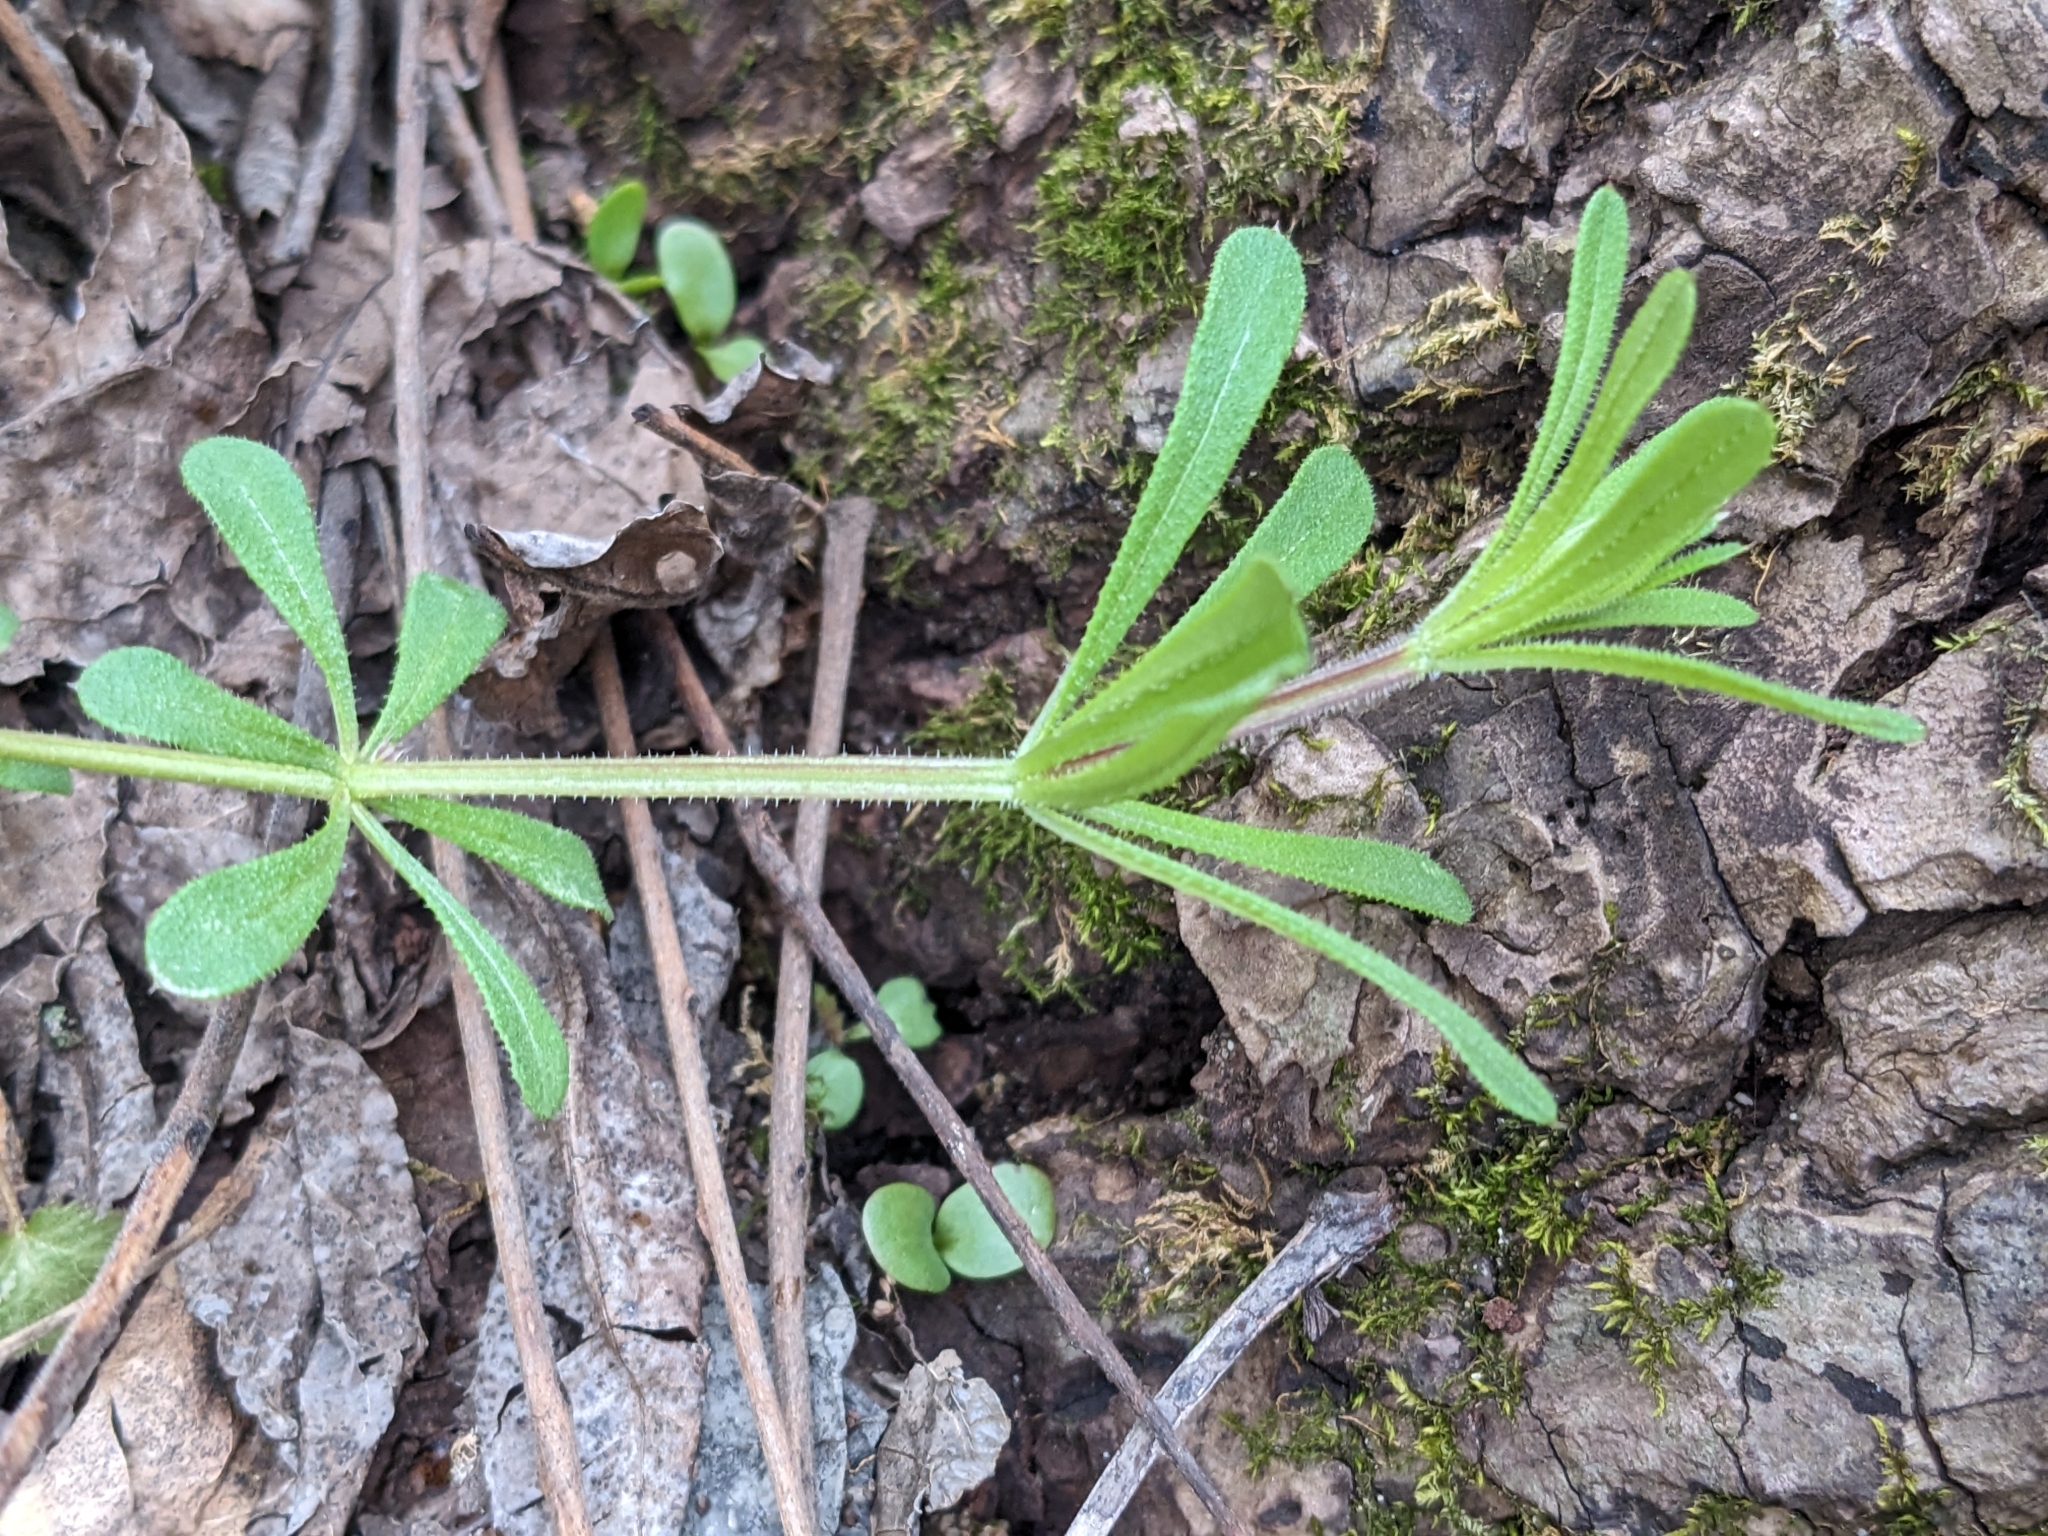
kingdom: Plantae
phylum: Tracheophyta
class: Magnoliopsida
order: Gentianales
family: Rubiaceae
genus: Galium
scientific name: Galium aparine
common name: Cleavers
